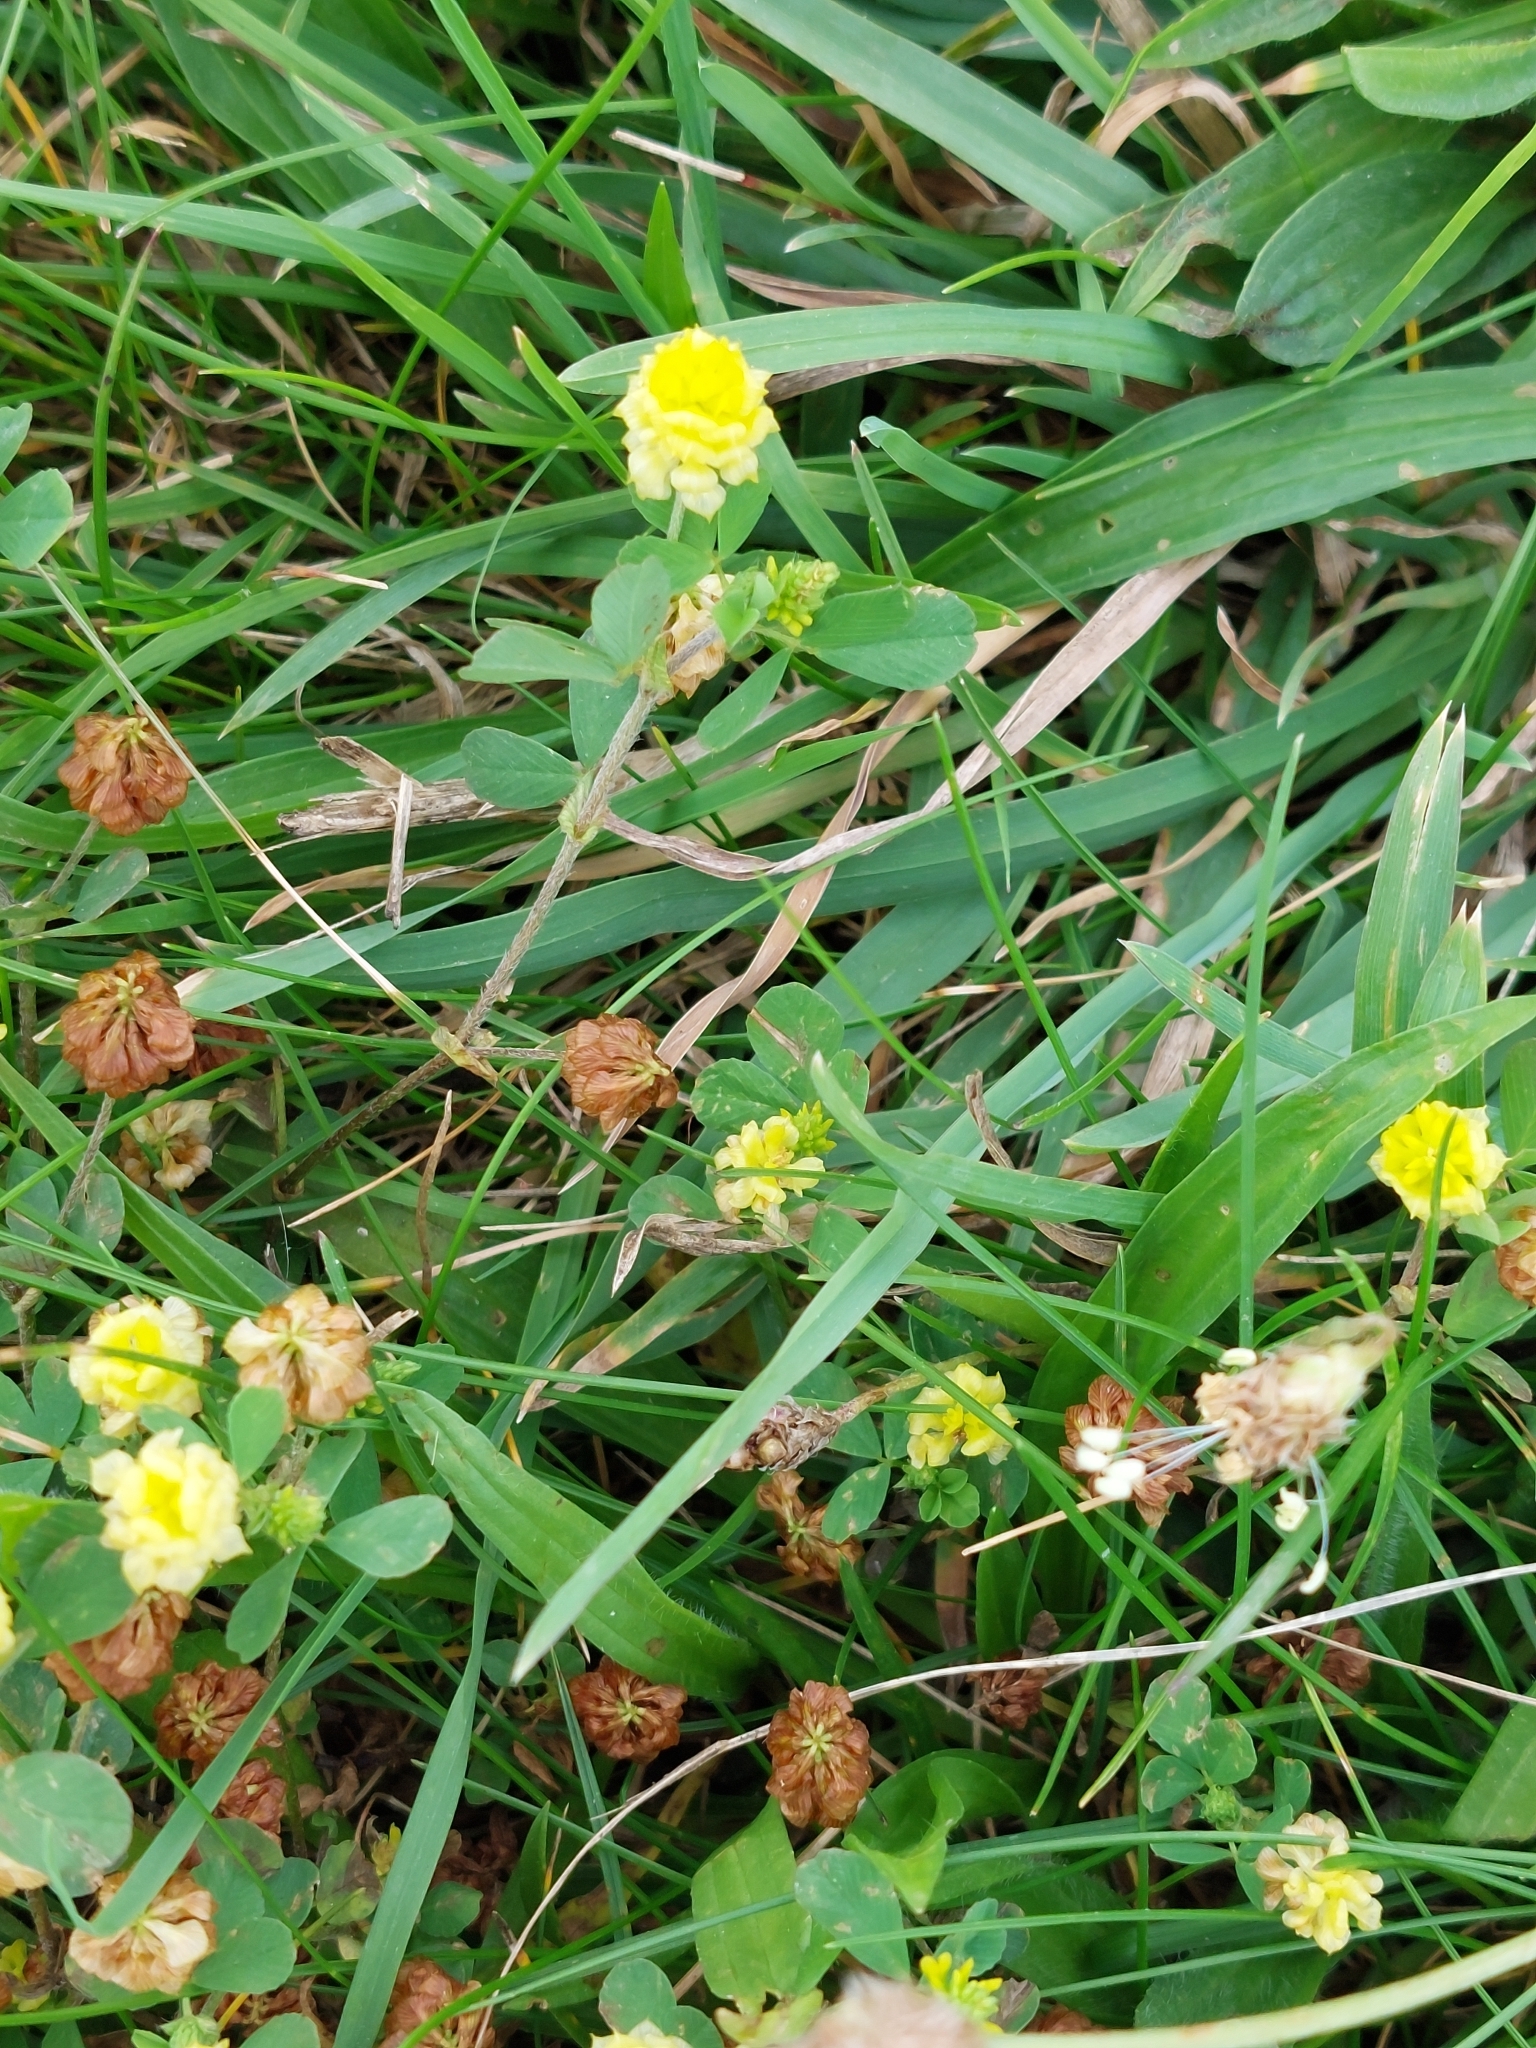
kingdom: Plantae
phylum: Tracheophyta
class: Magnoliopsida
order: Fabales
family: Fabaceae
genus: Trifolium
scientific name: Trifolium campestre
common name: Field clover
